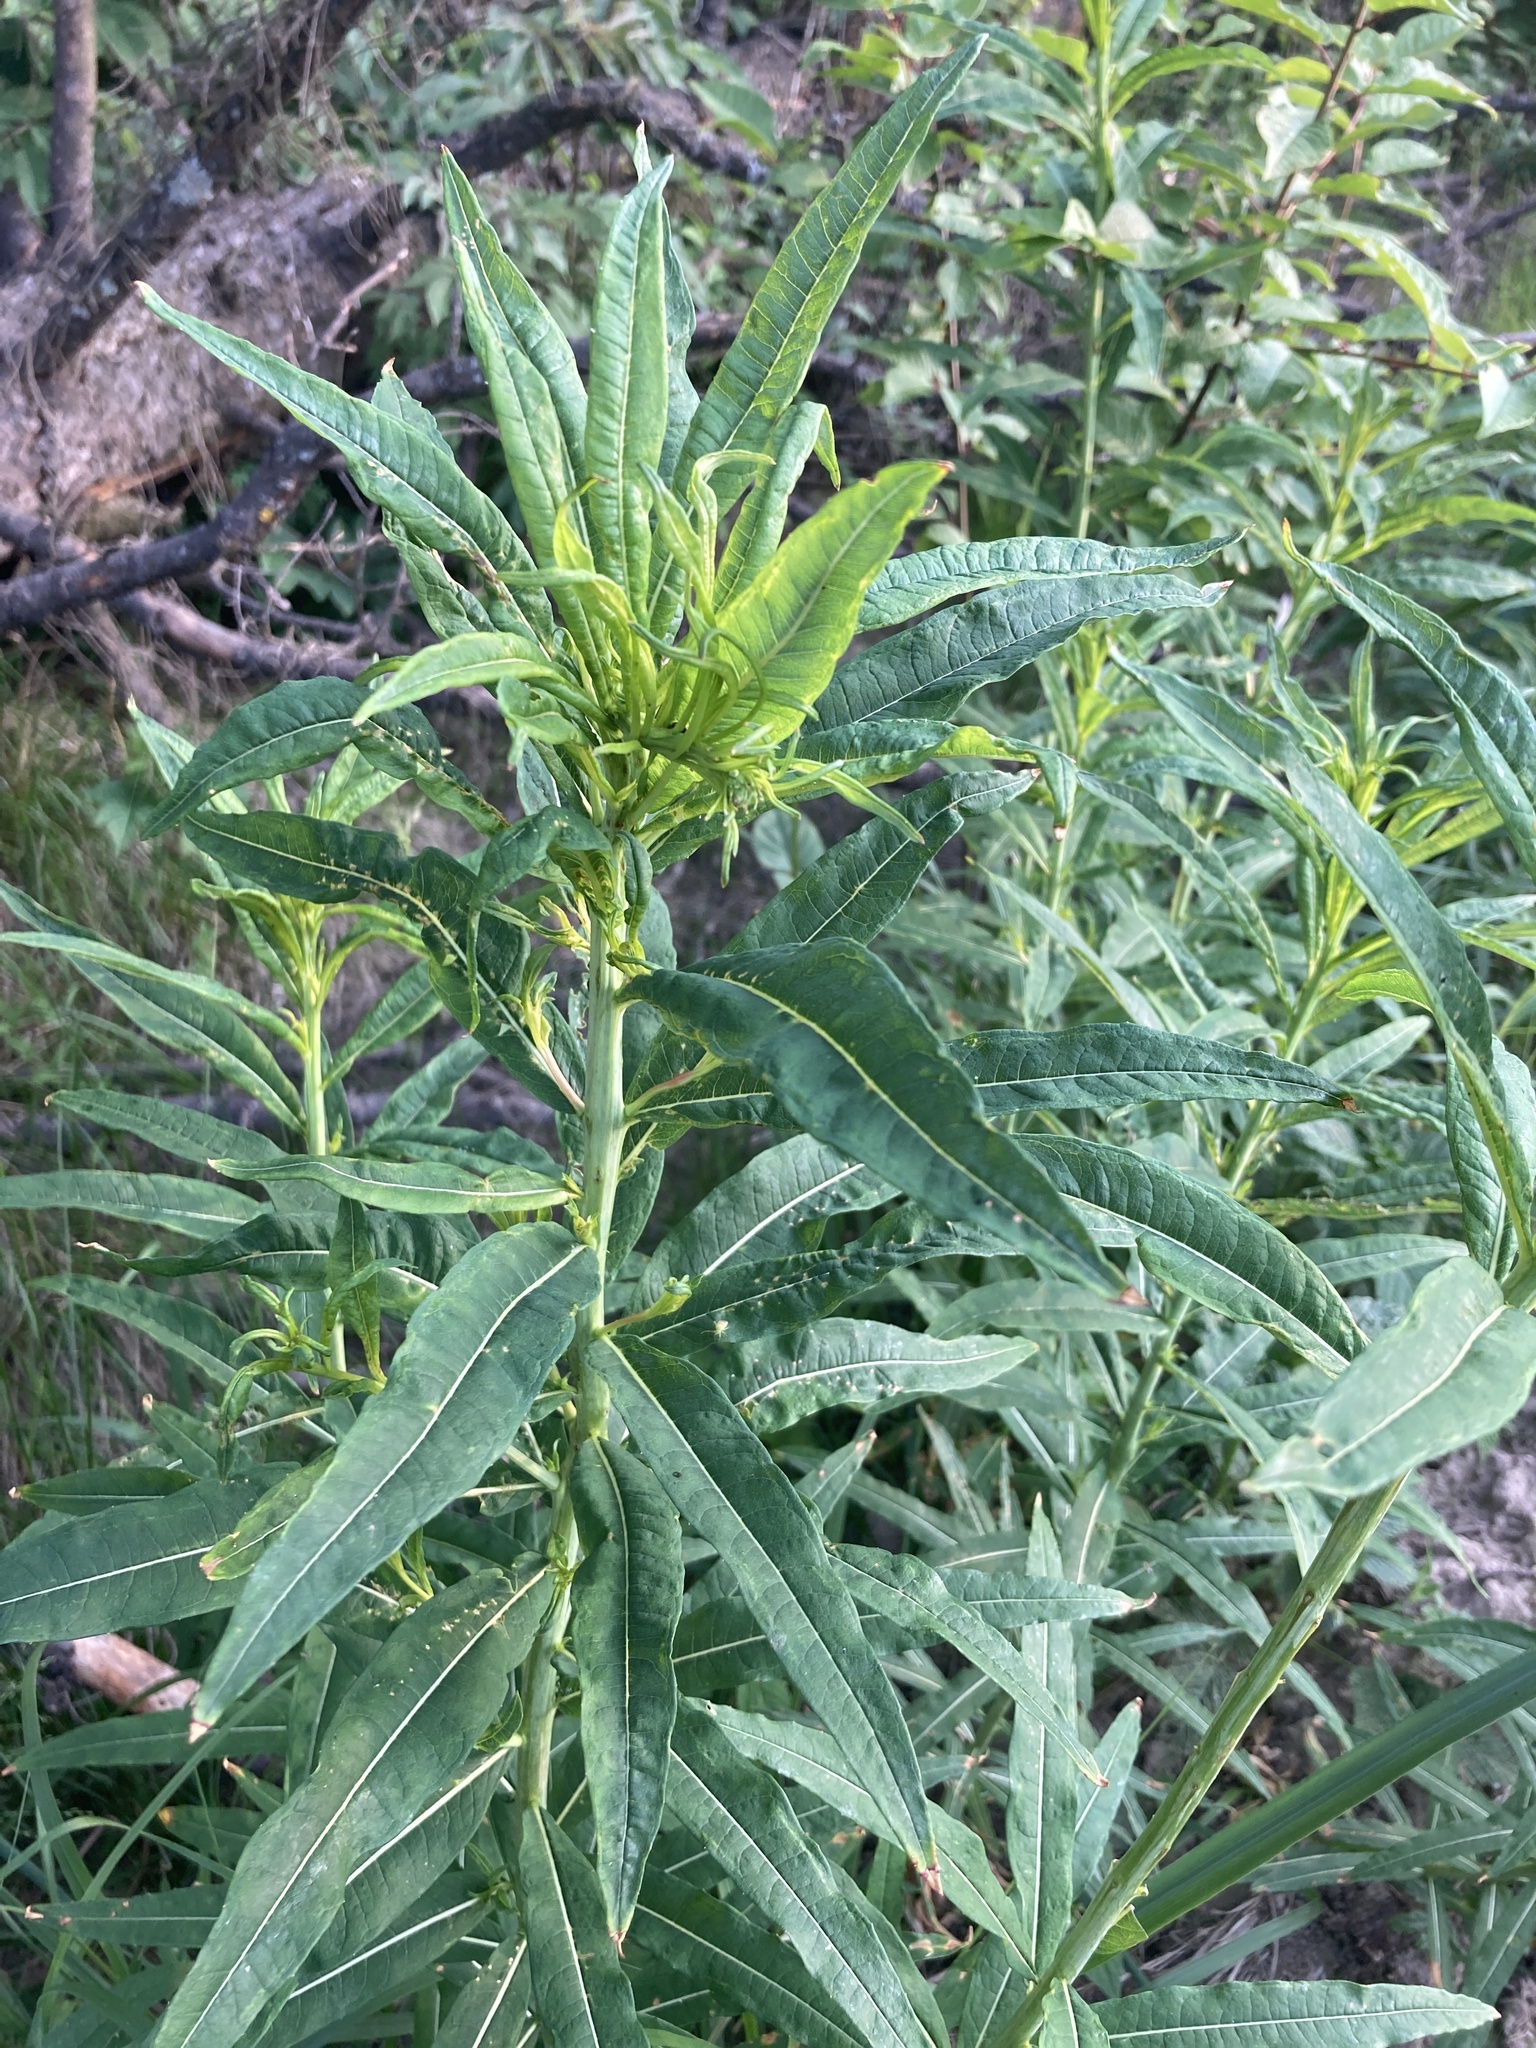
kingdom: Plantae
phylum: Tracheophyta
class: Magnoliopsida
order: Myrtales
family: Onagraceae
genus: Chamaenerion
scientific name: Chamaenerion angustifolium
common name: Fireweed
